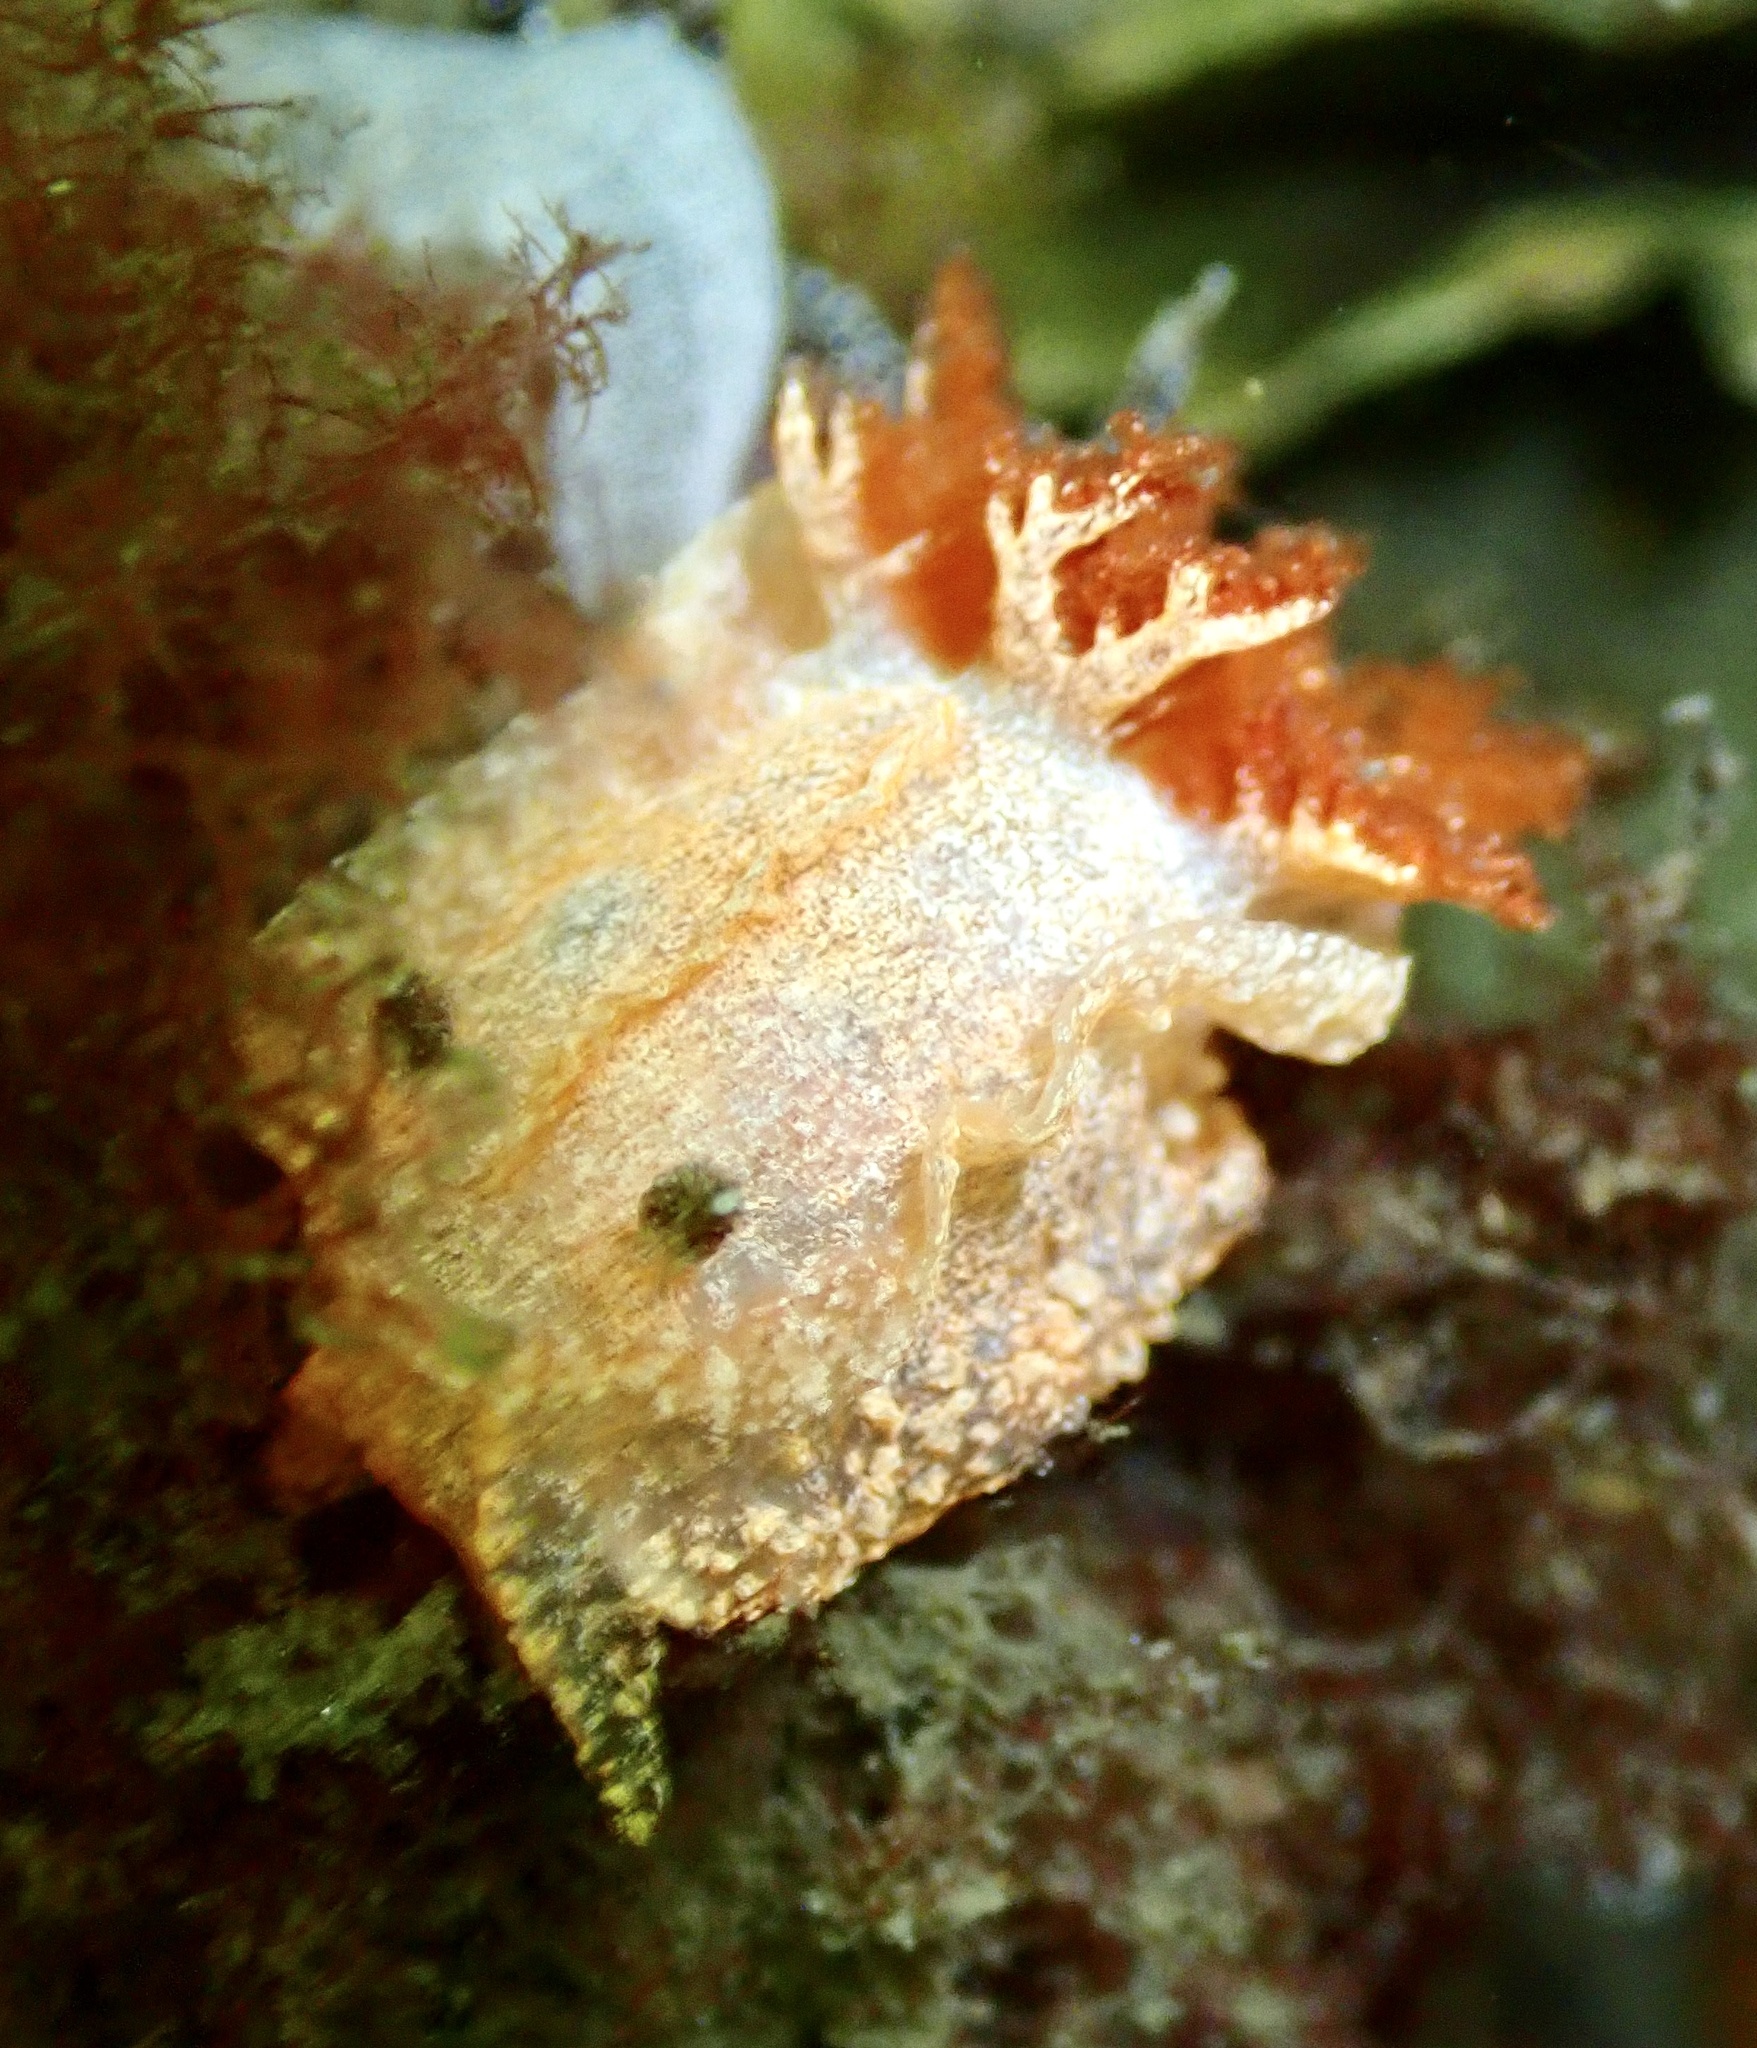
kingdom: Animalia
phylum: Mollusca
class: Gastropoda
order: Nudibranchia
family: Goniodorididae
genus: Pelagella
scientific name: Pelagella castanea
